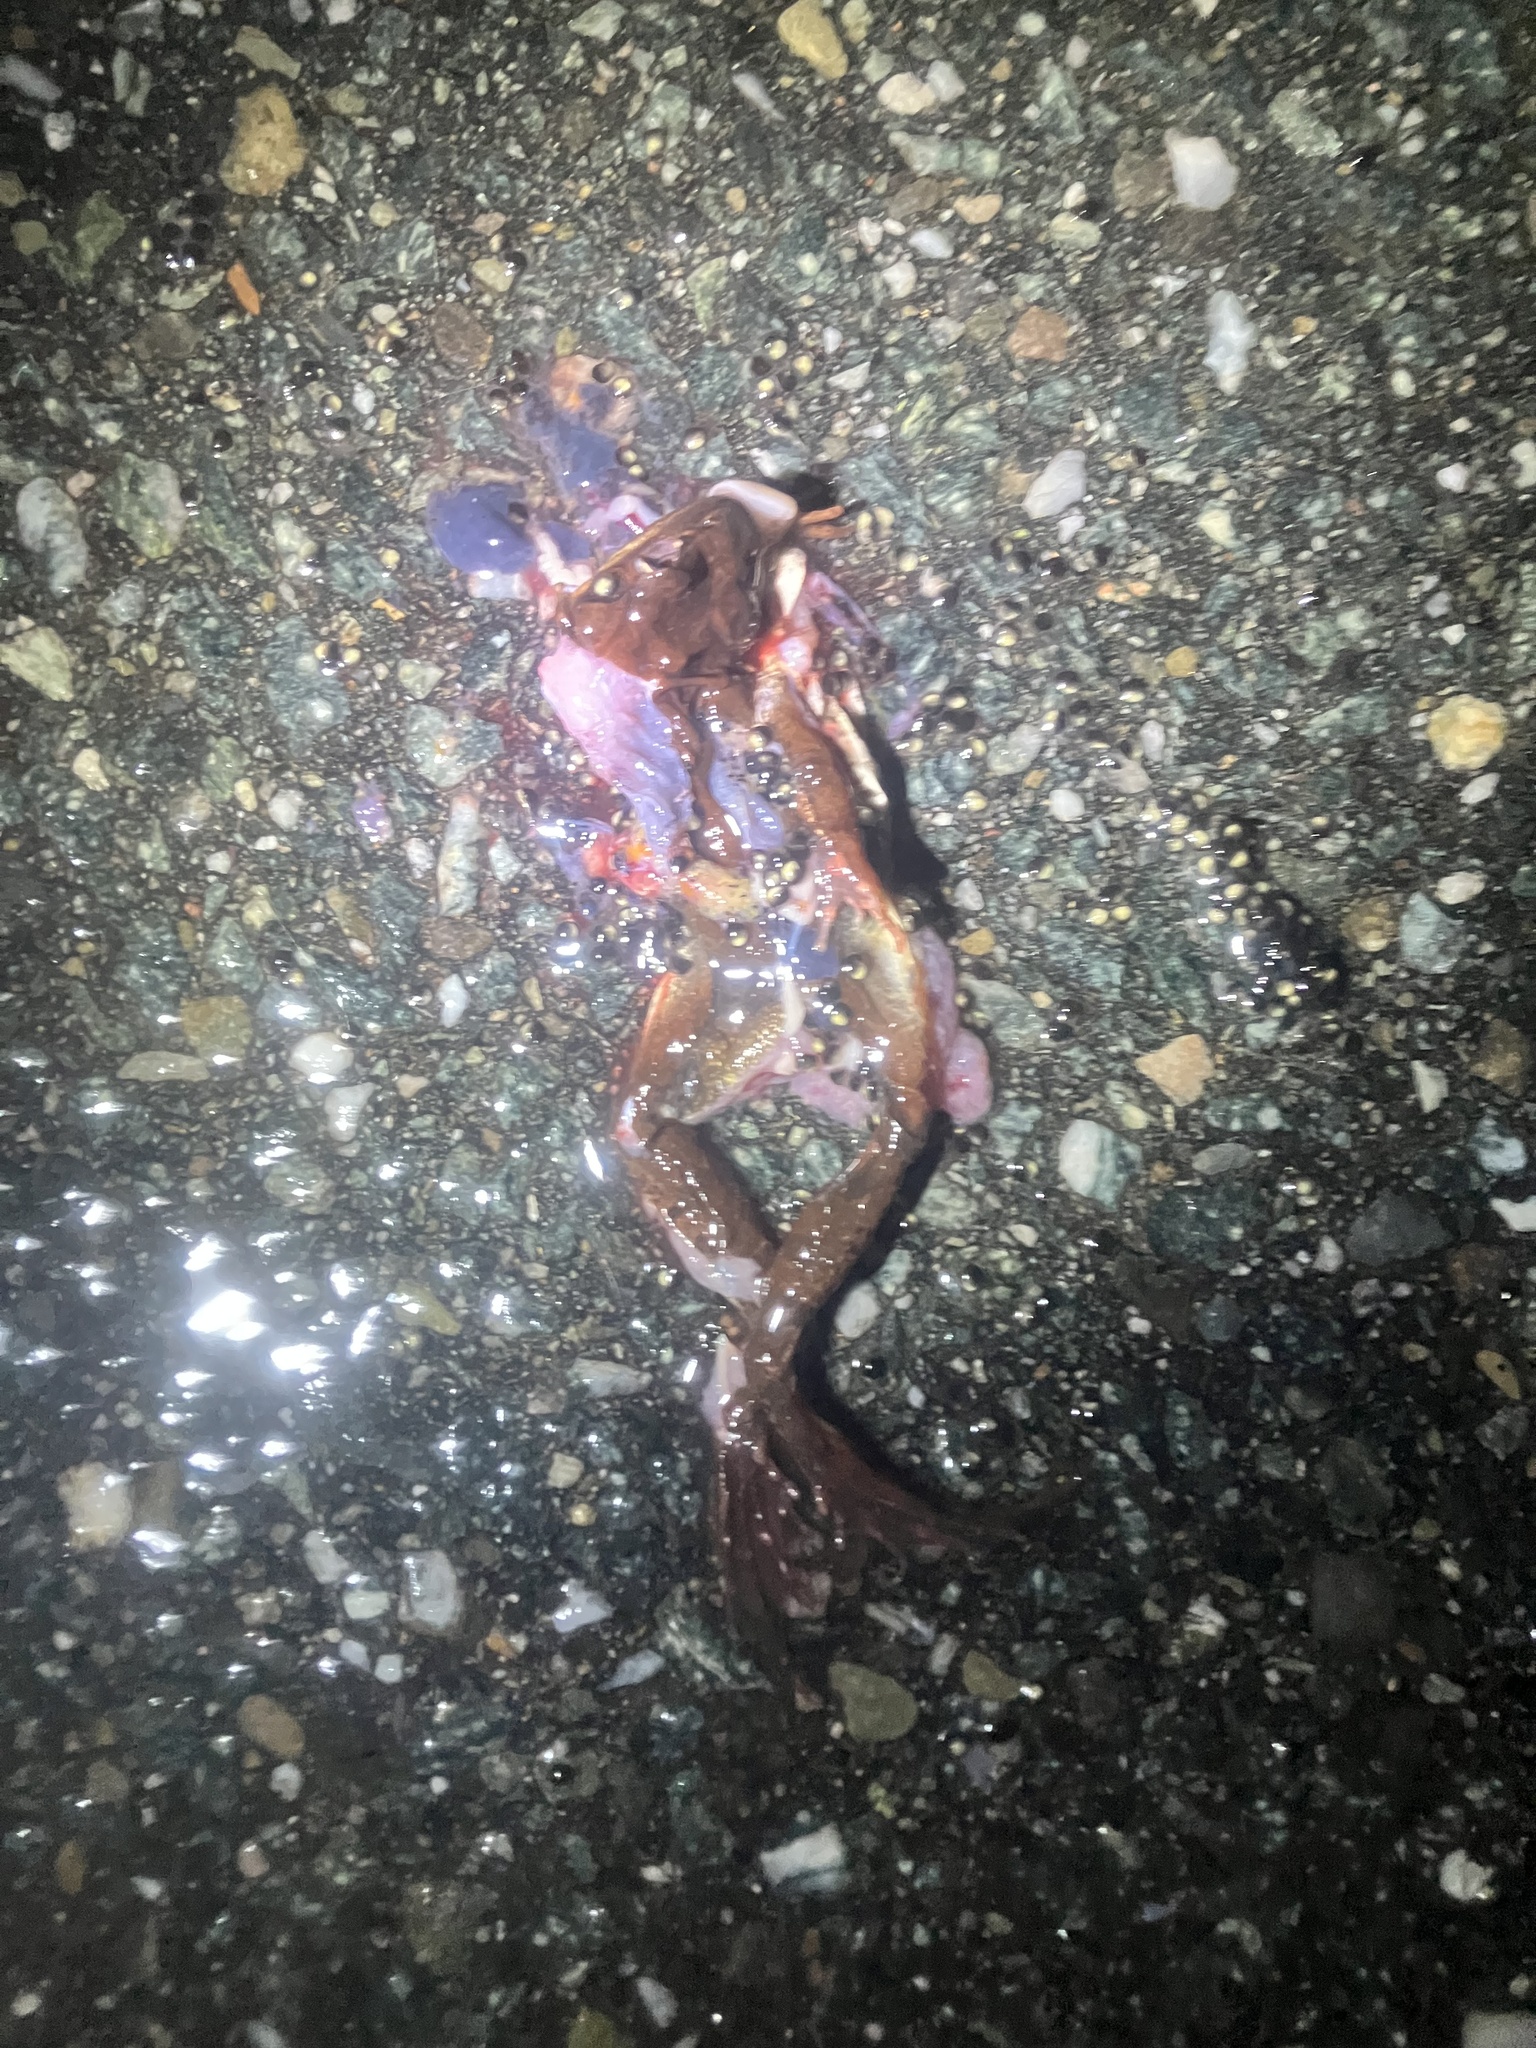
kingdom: Animalia
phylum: Chordata
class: Amphibia
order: Anura
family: Ranidae
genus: Lithobates
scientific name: Lithobates sylvaticus
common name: Wood frog
